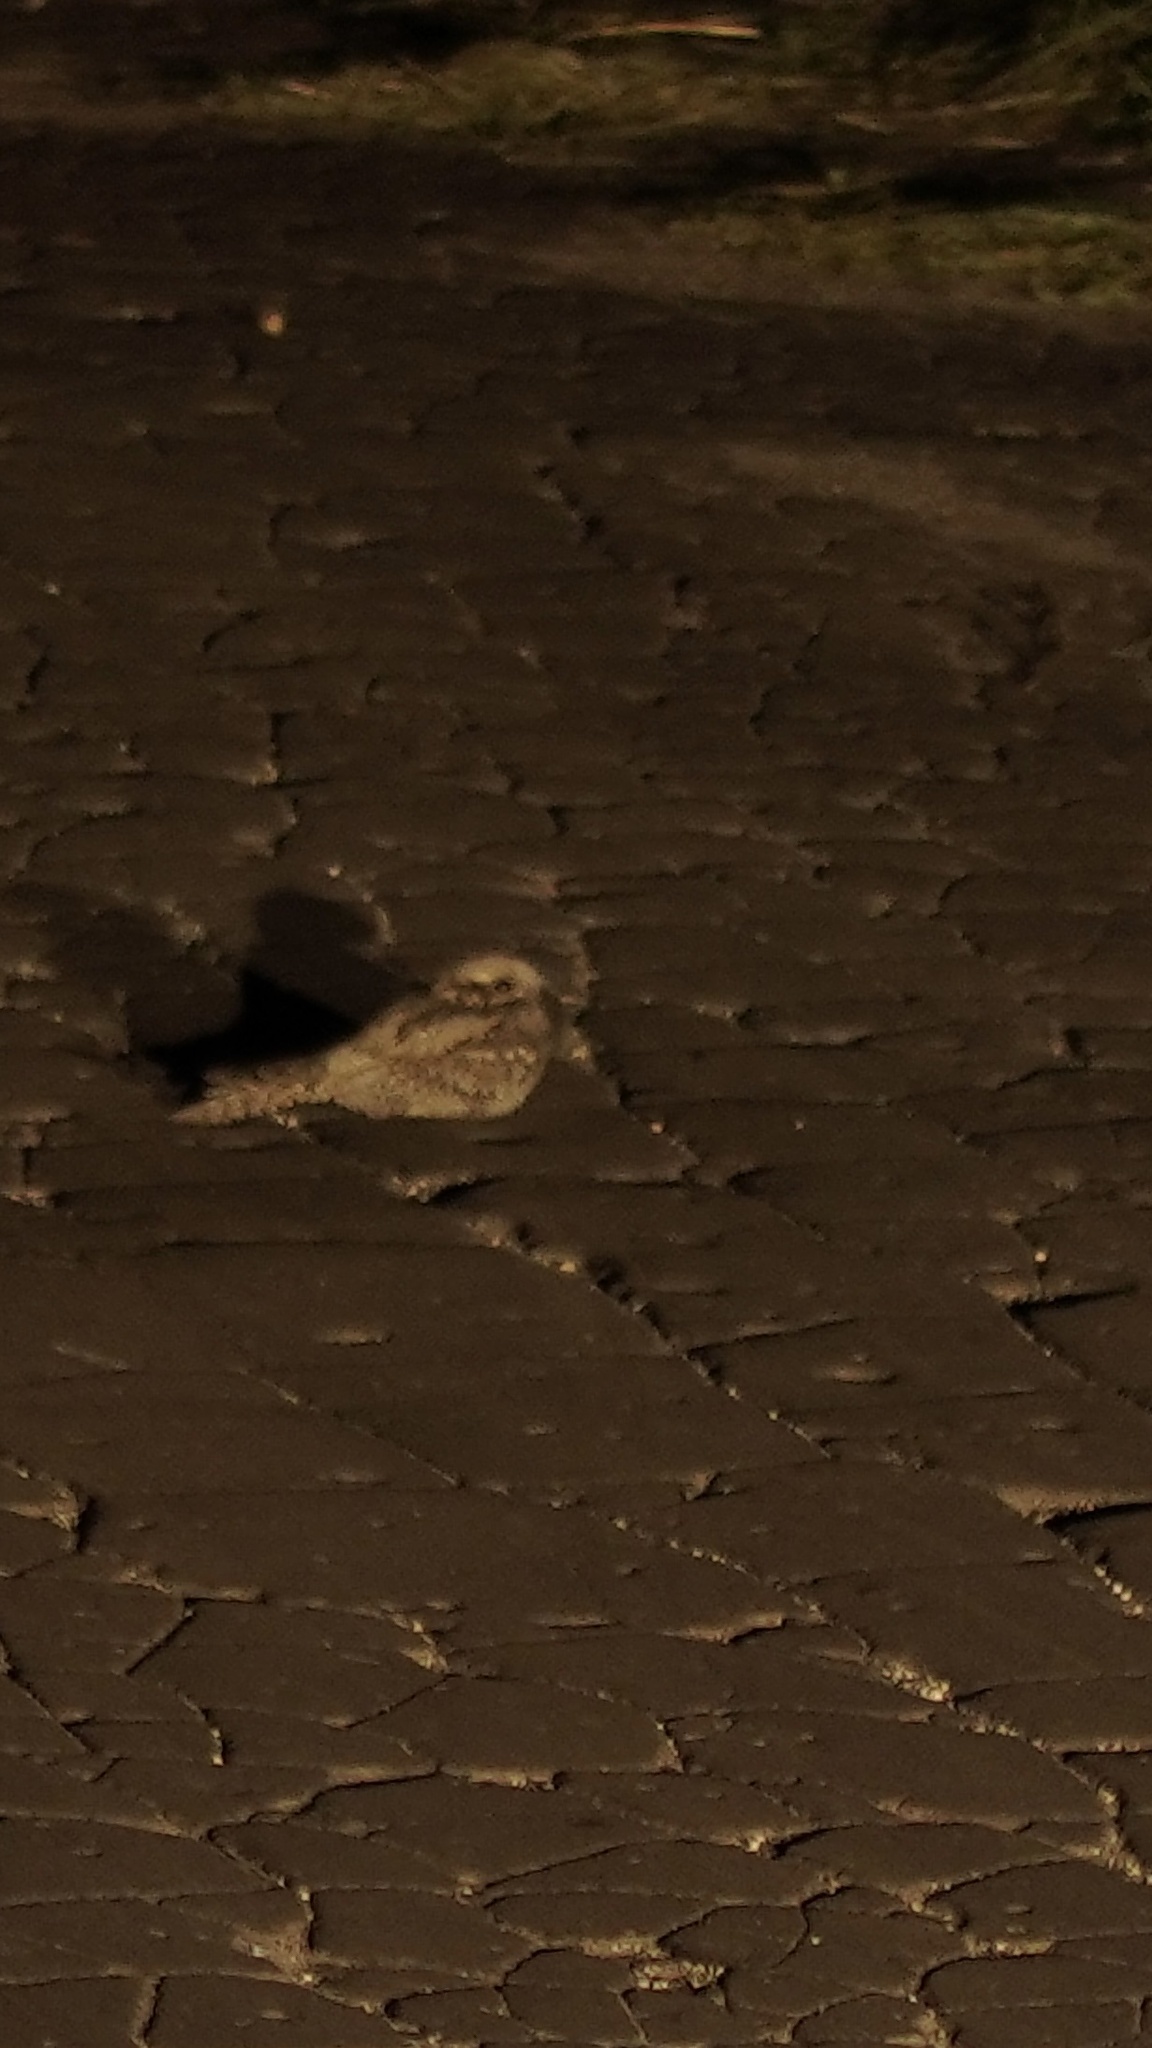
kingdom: Animalia
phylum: Chordata
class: Aves
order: Caprimulgiformes
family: Caprimulgidae
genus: Caprimulgus
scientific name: Caprimulgus europaeus
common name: European nightjar
